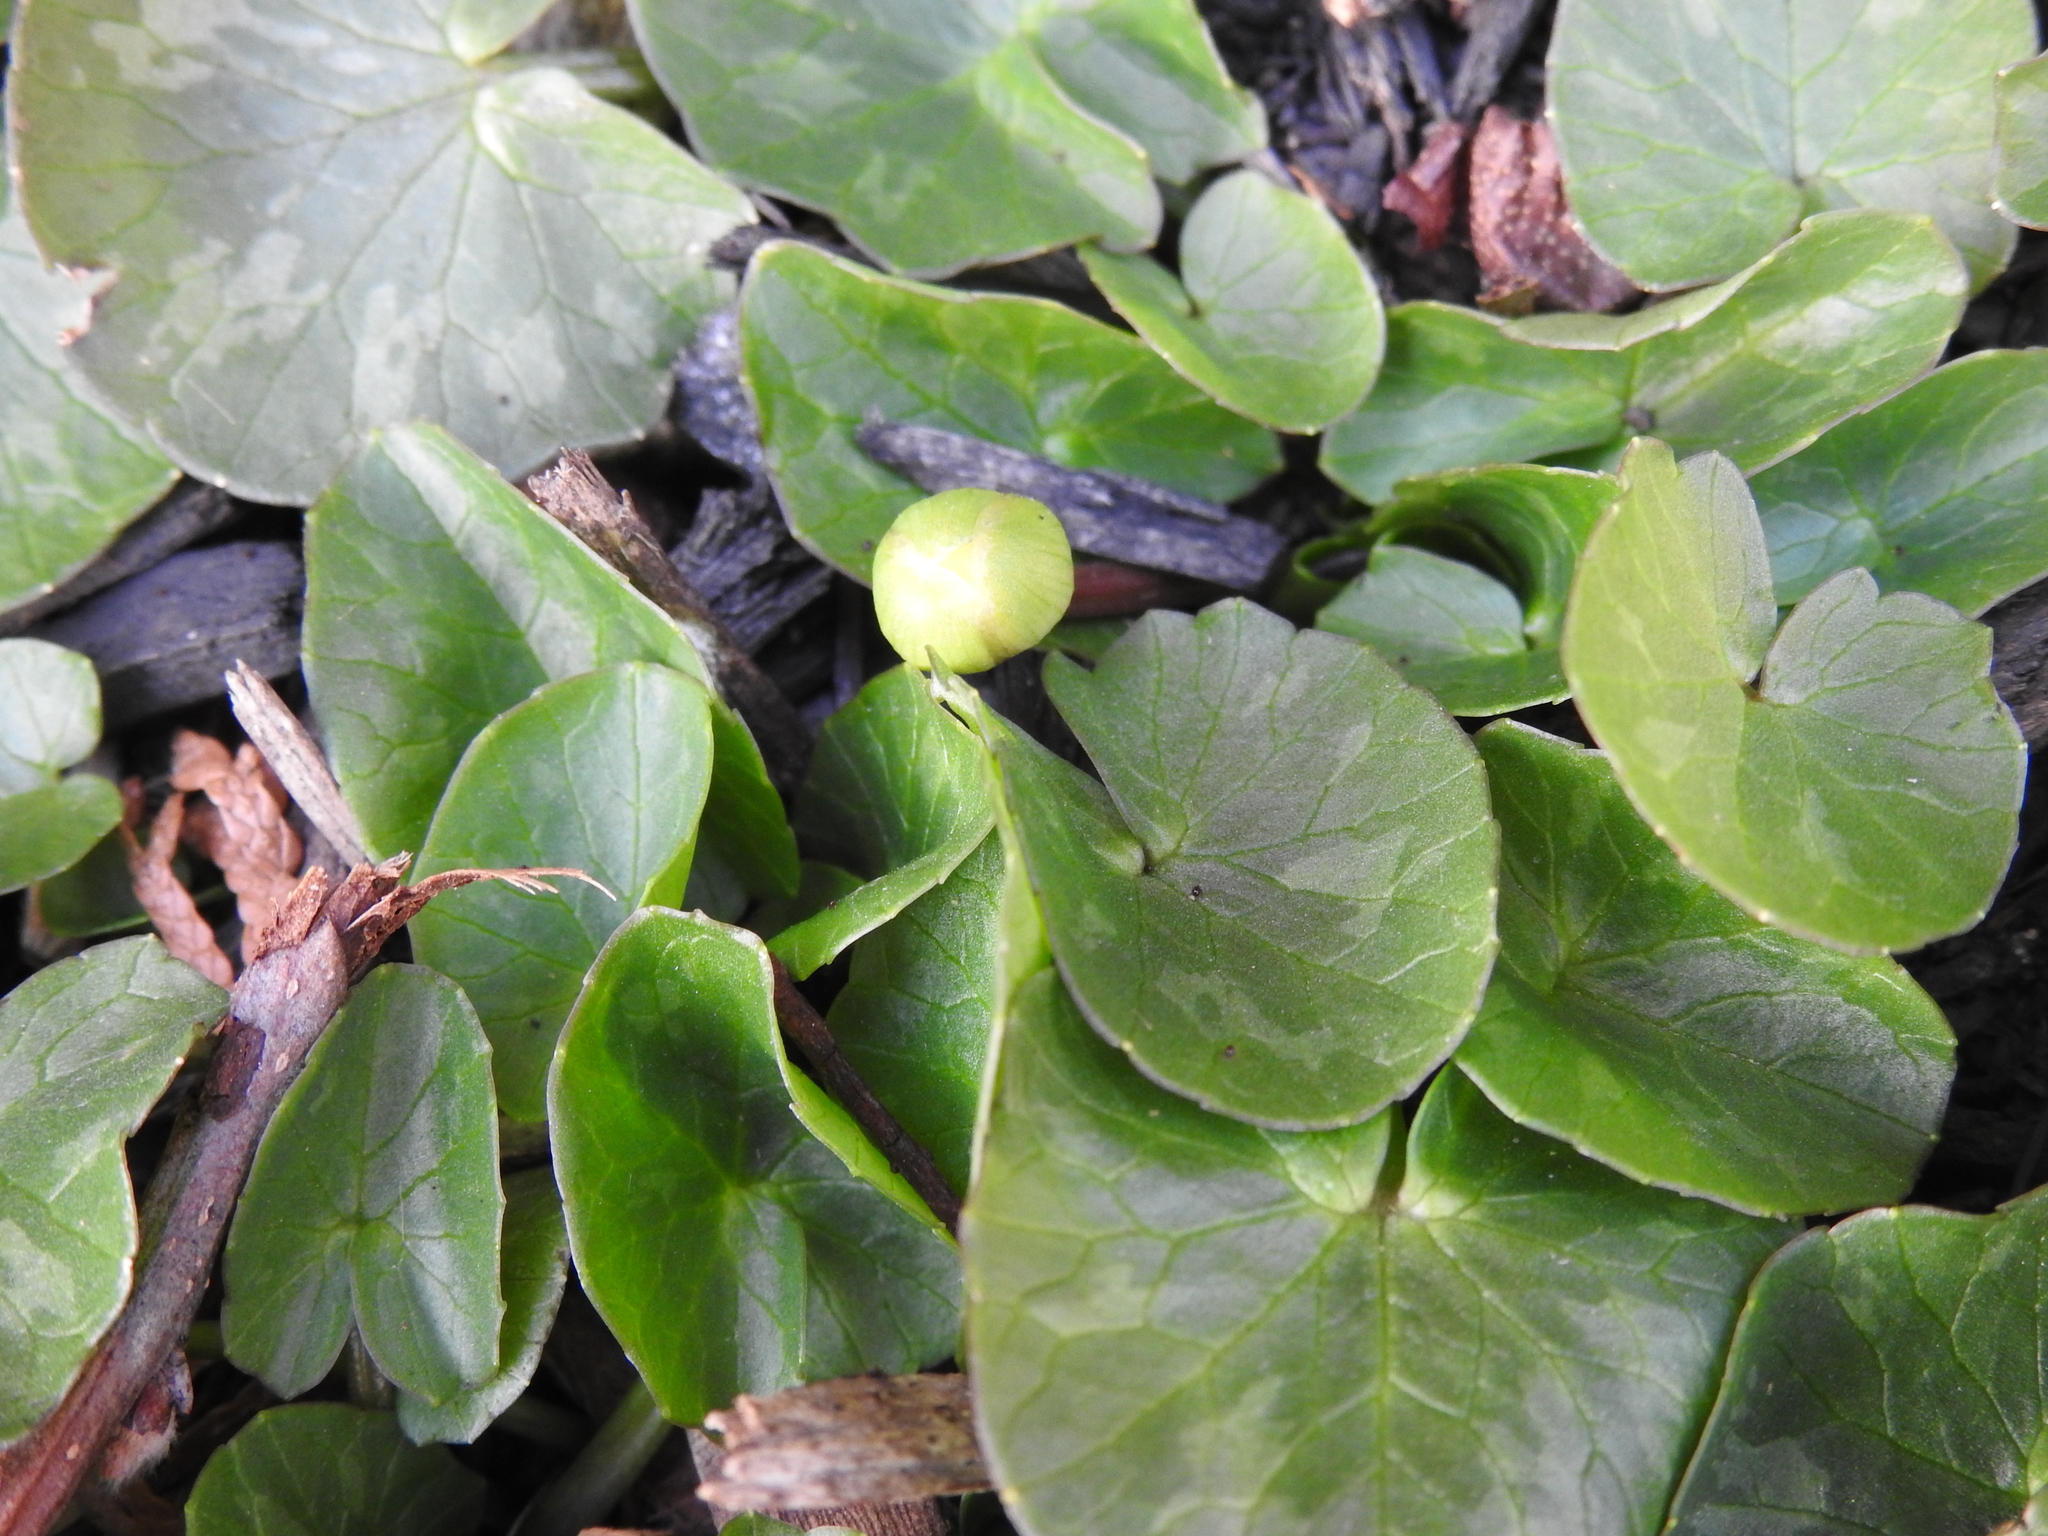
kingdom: Plantae
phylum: Tracheophyta
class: Magnoliopsida
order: Ranunculales
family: Ranunculaceae
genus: Ficaria
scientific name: Ficaria verna
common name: Lesser celandine
